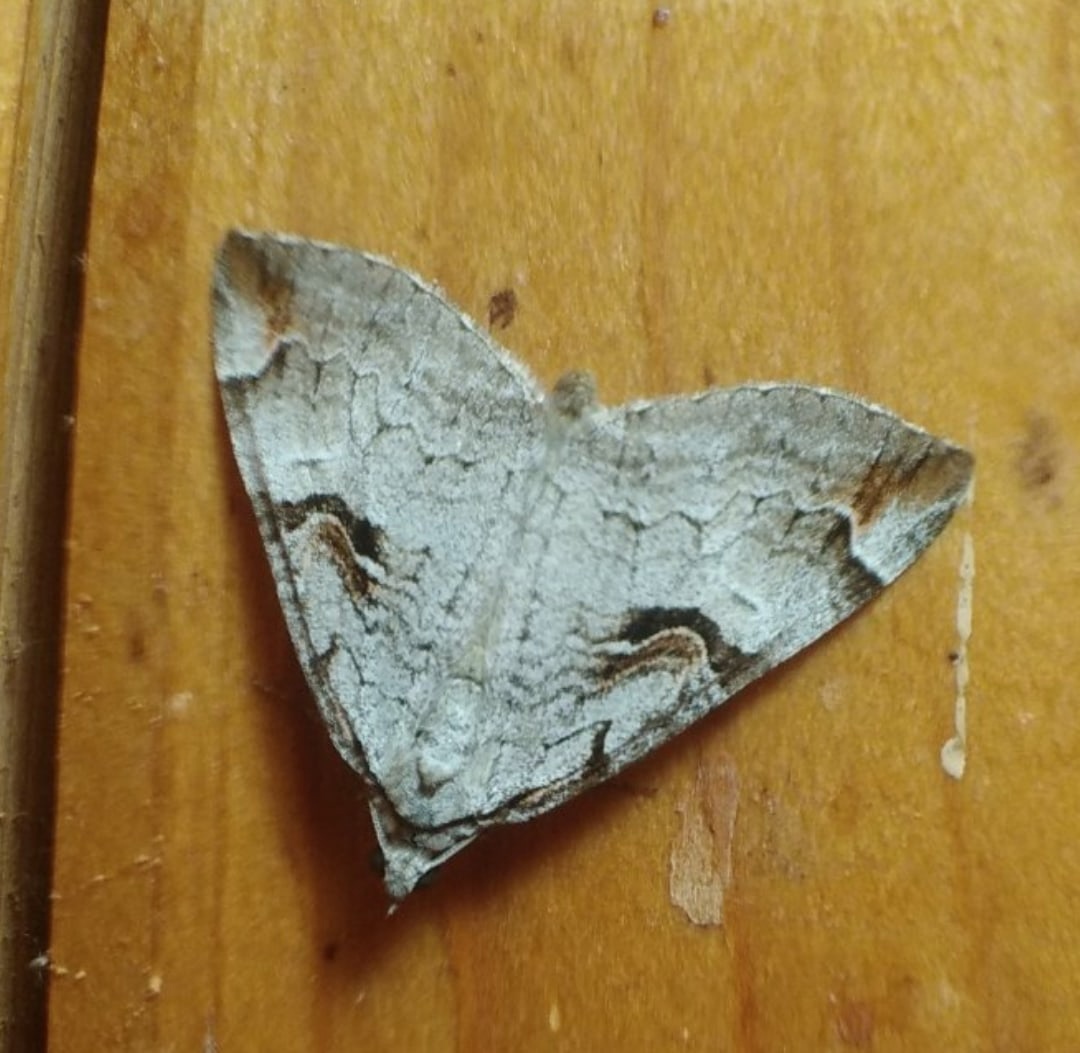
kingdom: Animalia
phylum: Arthropoda
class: Insecta
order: Lepidoptera
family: Geometridae
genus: Aplocera
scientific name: Aplocera praeformata
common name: Purple treble-bar
